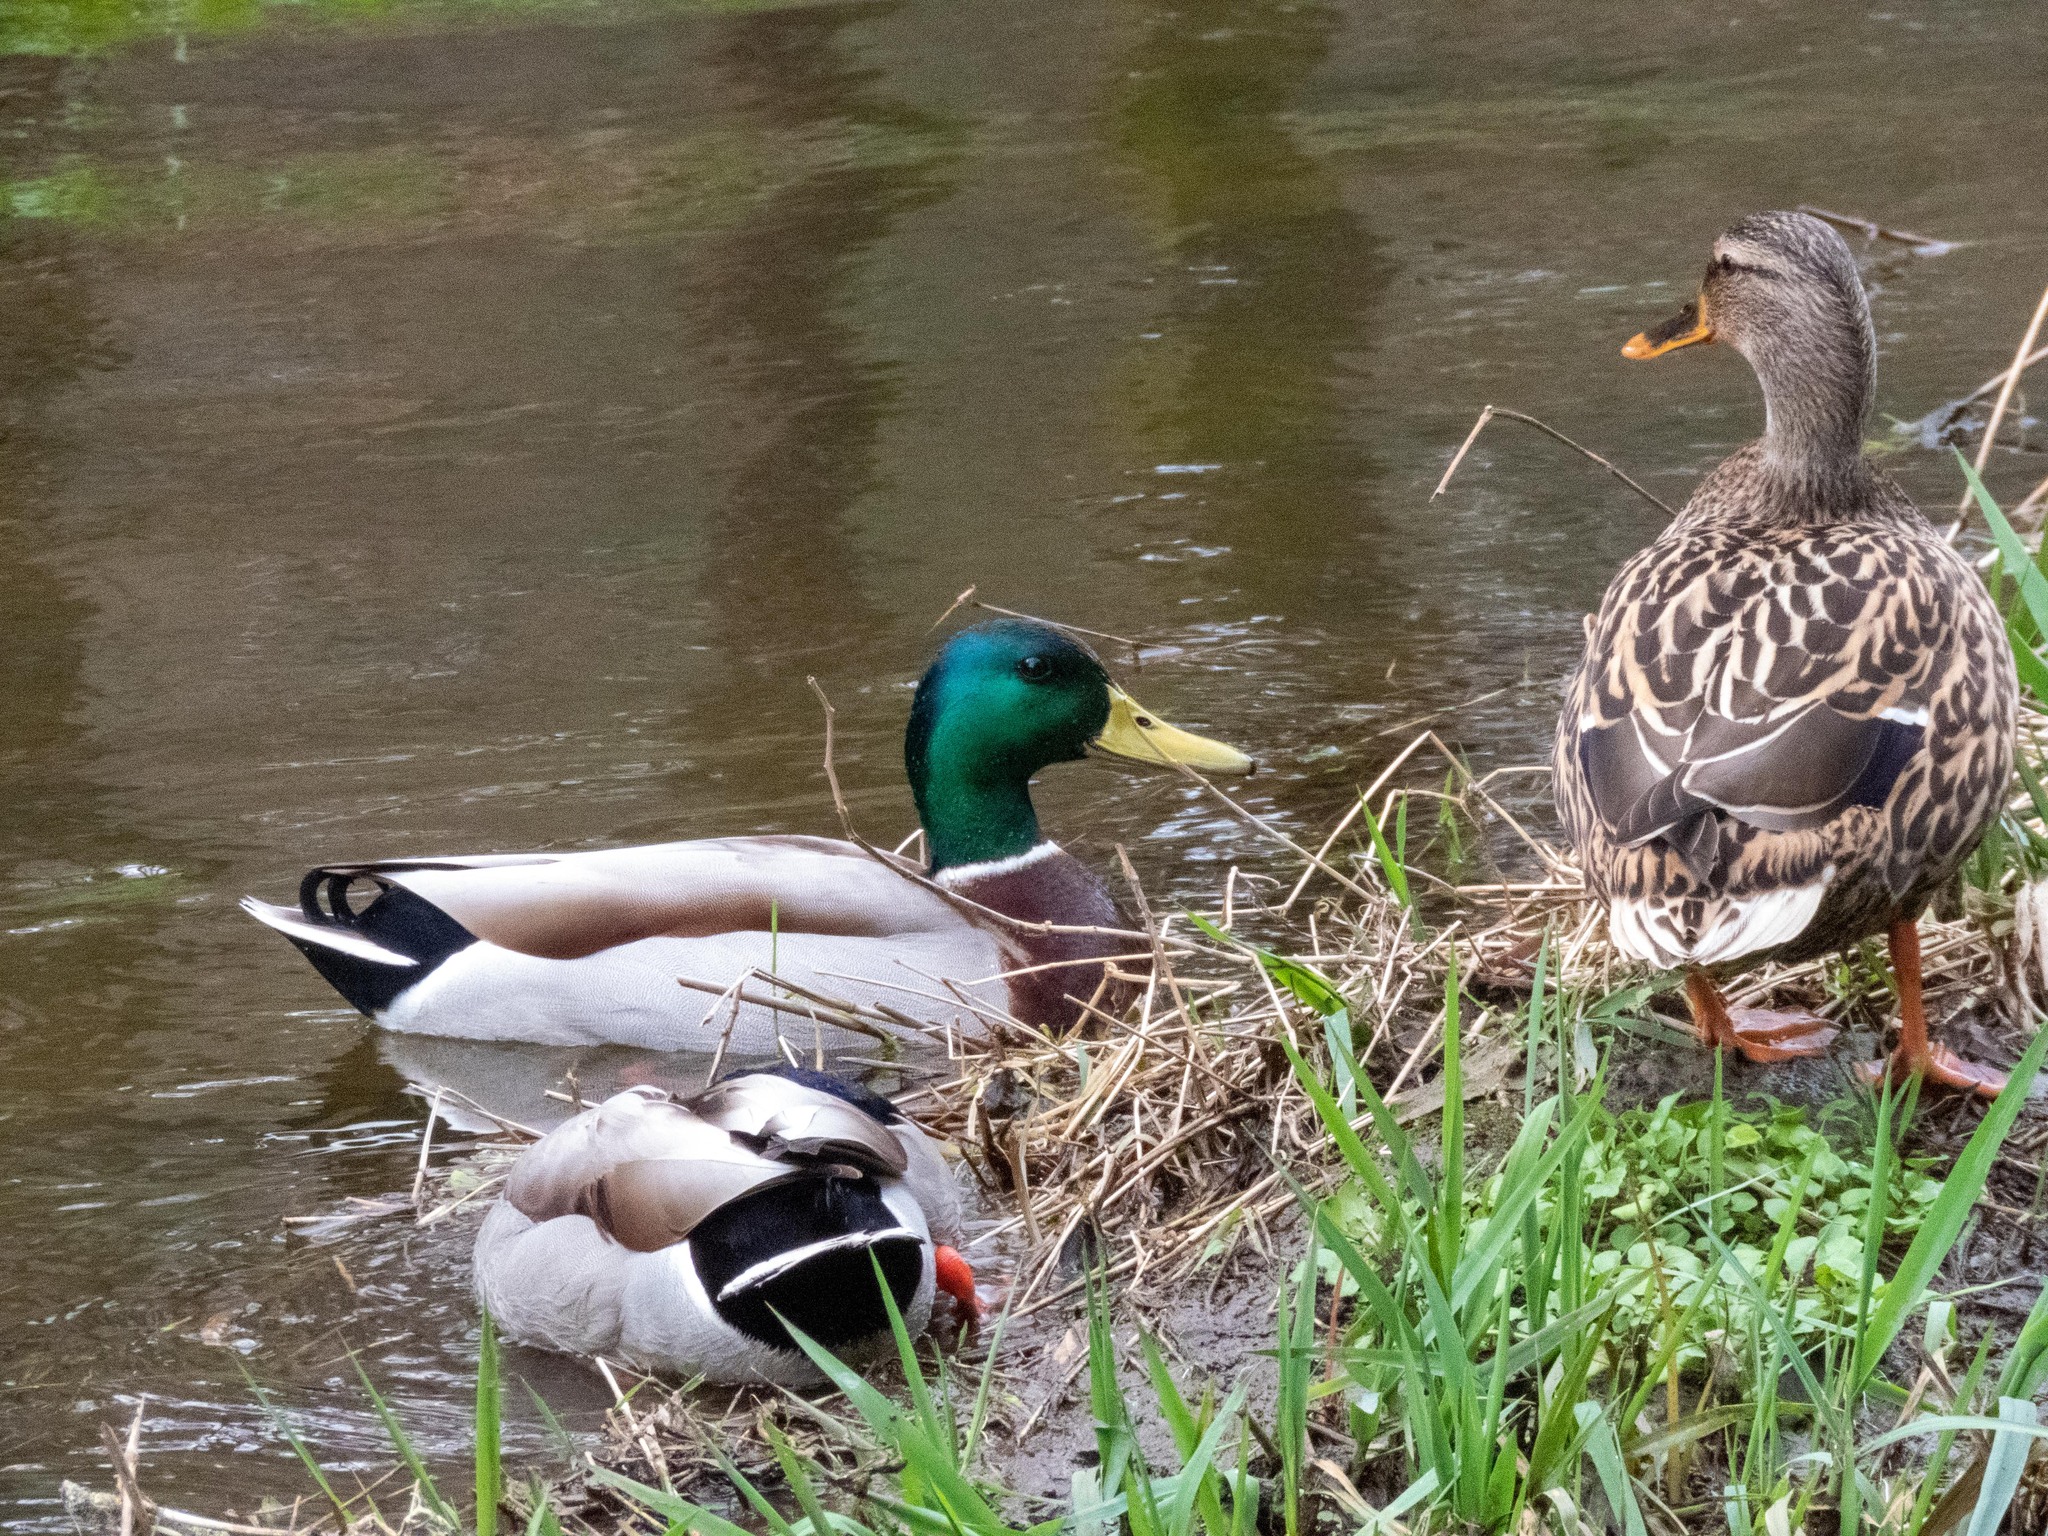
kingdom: Animalia
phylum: Chordata
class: Aves
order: Anseriformes
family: Anatidae
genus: Anas
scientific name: Anas platyrhynchos
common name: Mallard
